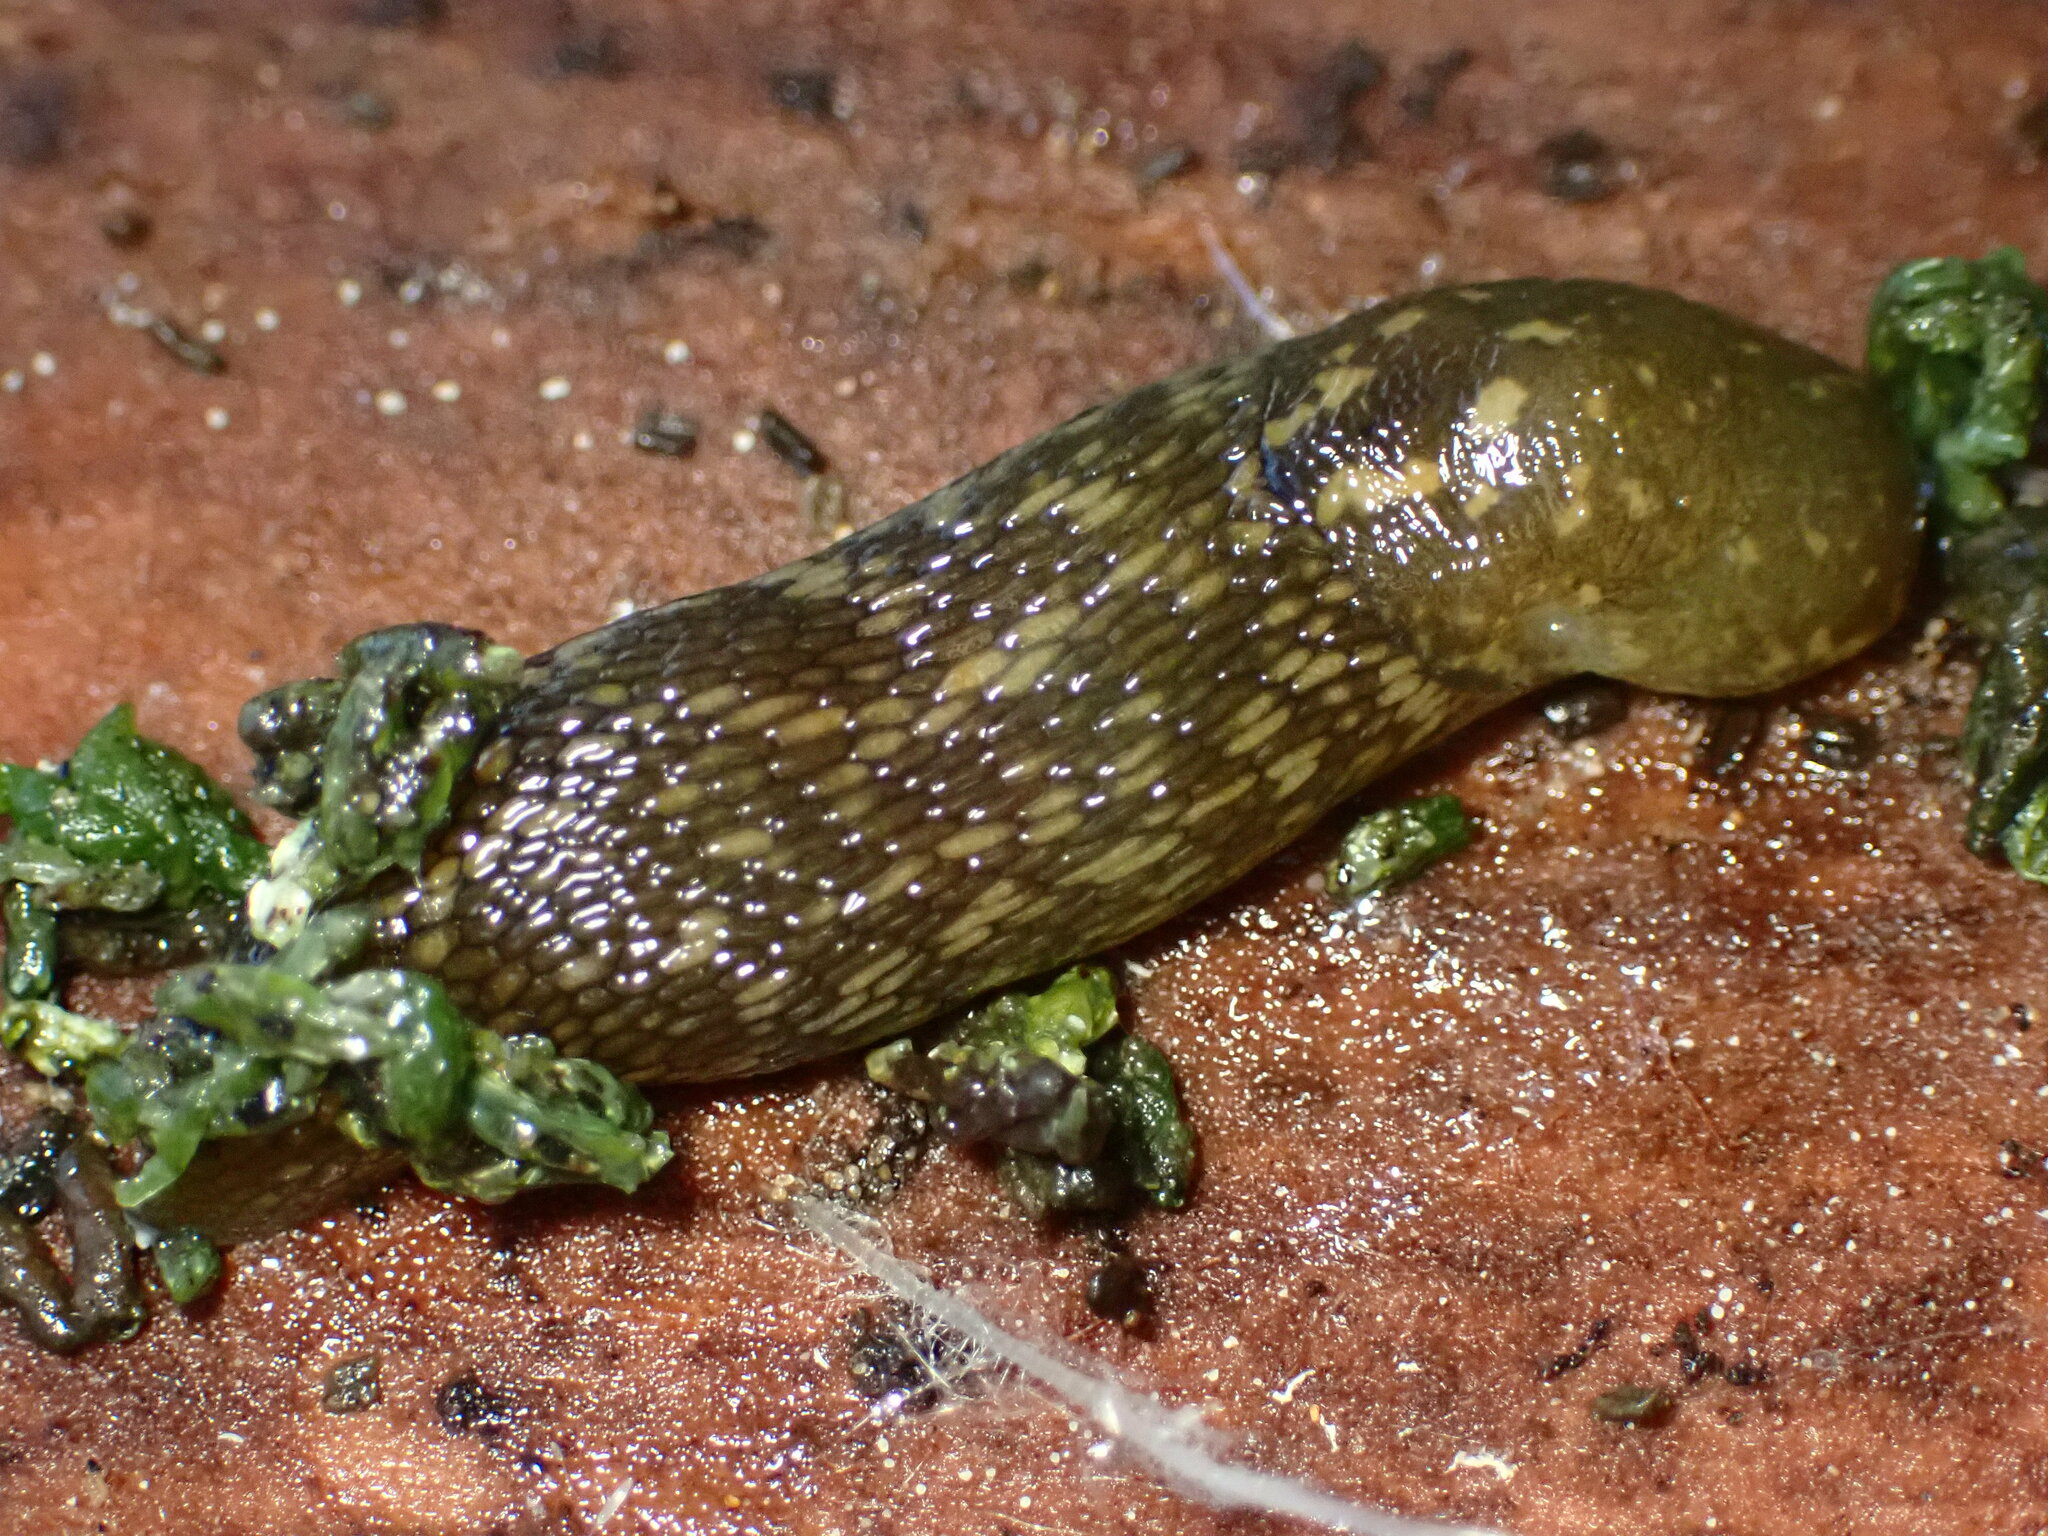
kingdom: Animalia
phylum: Mollusca
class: Gastropoda
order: Stylommatophora
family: Limacidae
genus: Limacus
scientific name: Limacus flavus
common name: Yellow gardenslug
